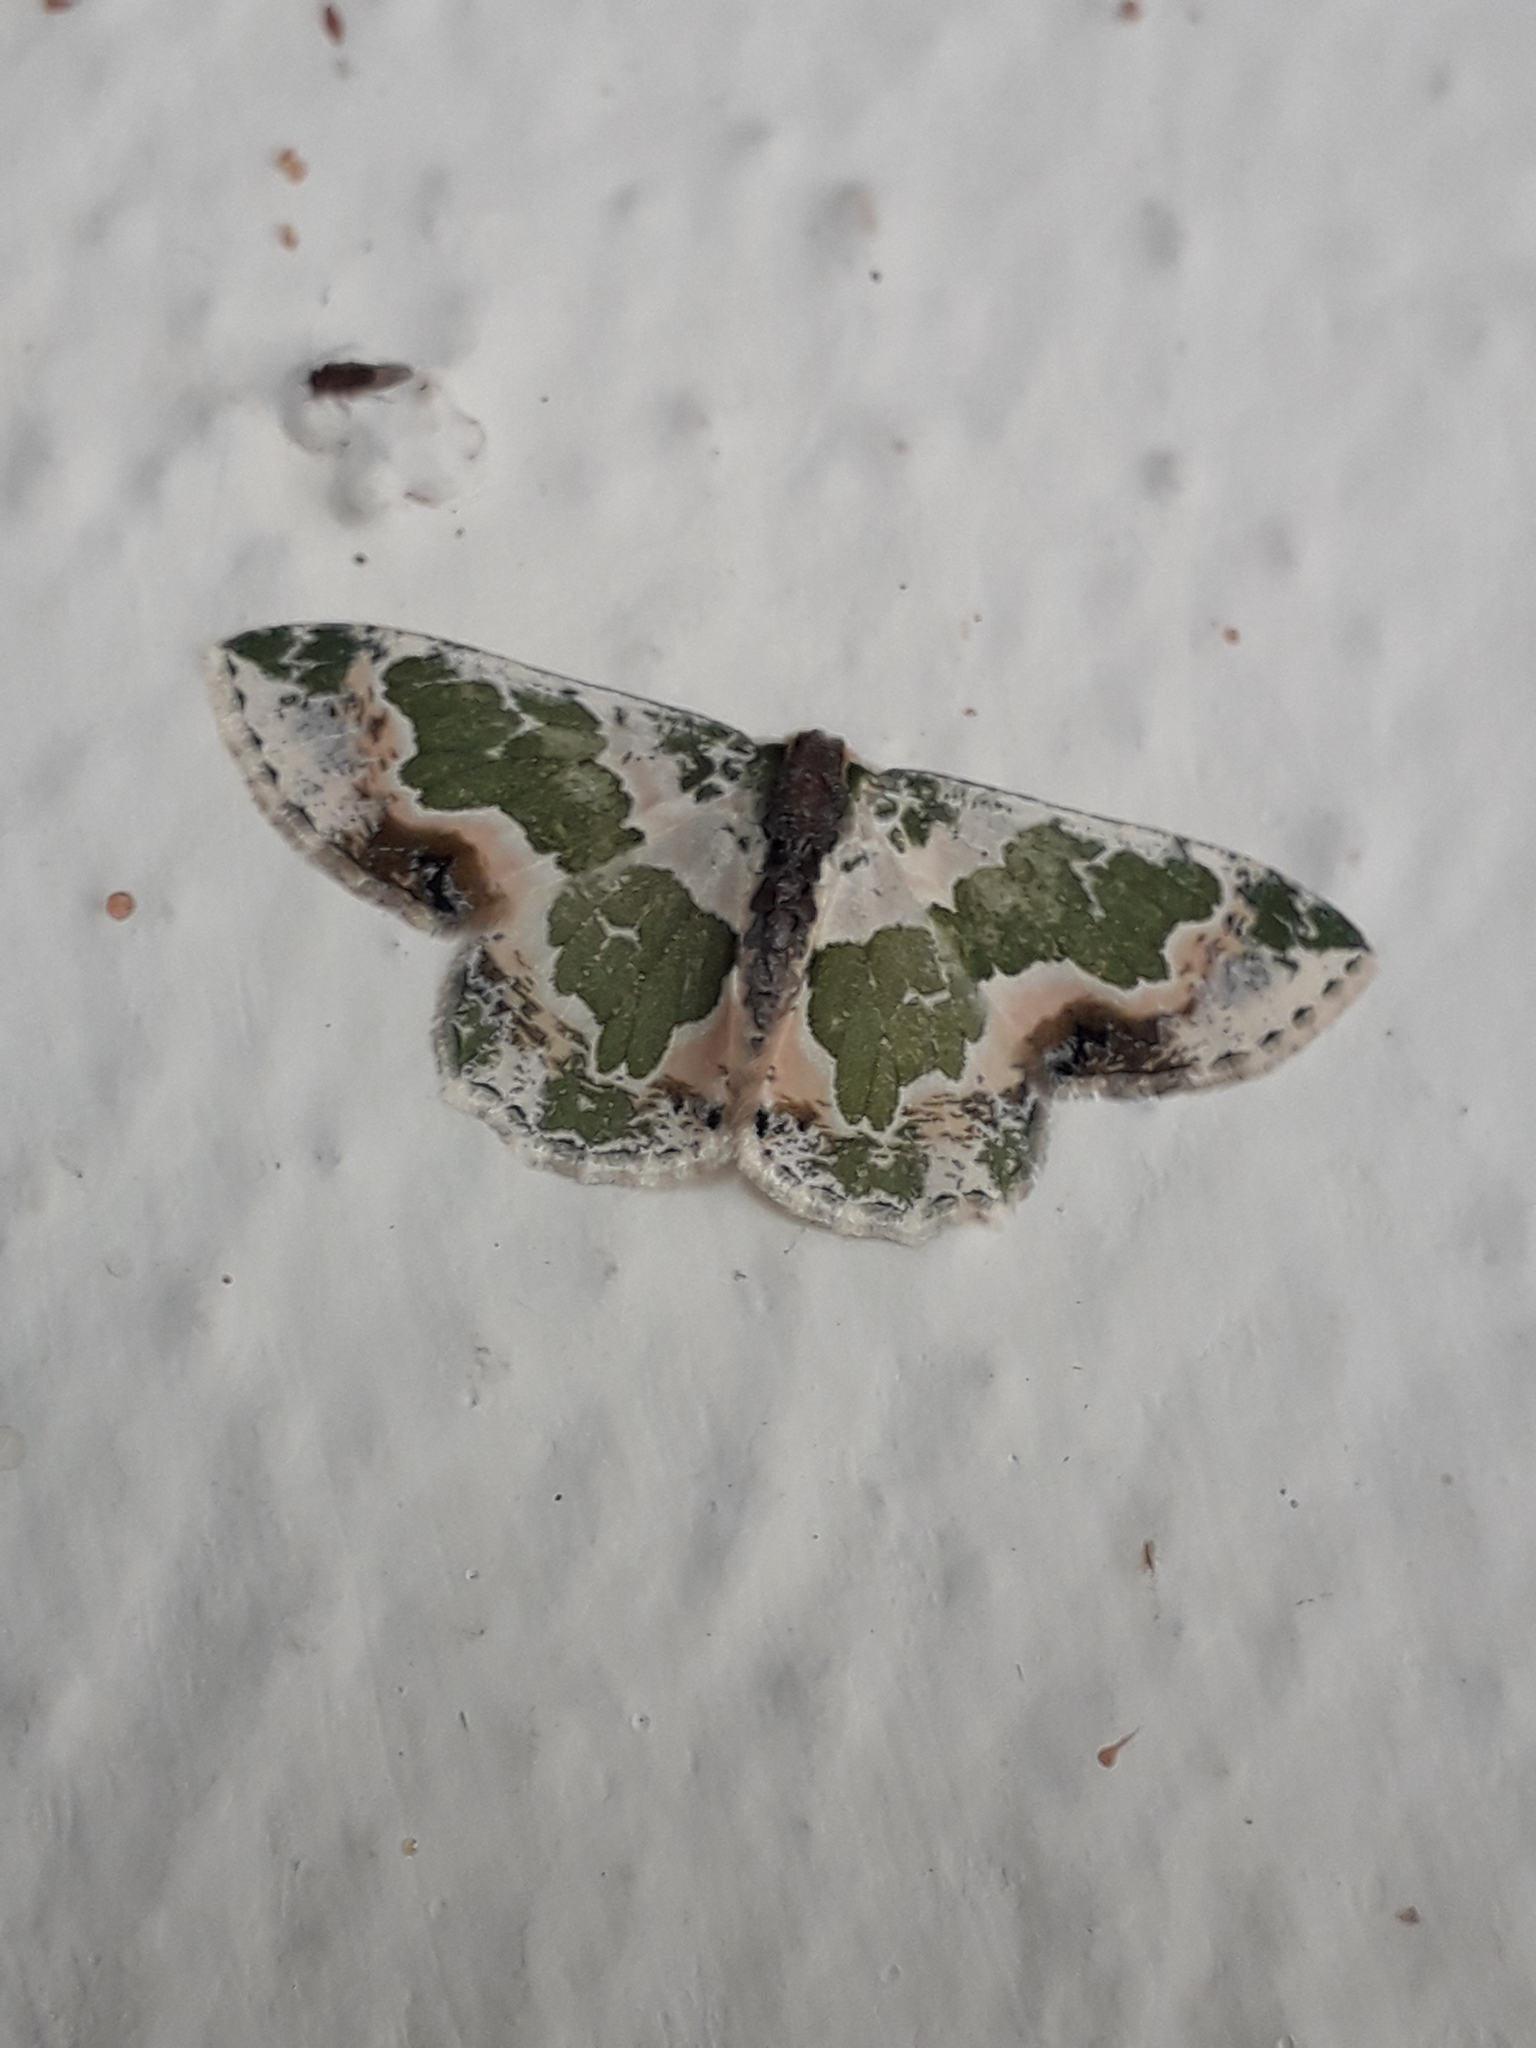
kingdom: Animalia
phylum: Arthropoda
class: Insecta
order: Lepidoptera
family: Geometridae
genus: Lophochorista
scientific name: Lophochorista calliope
